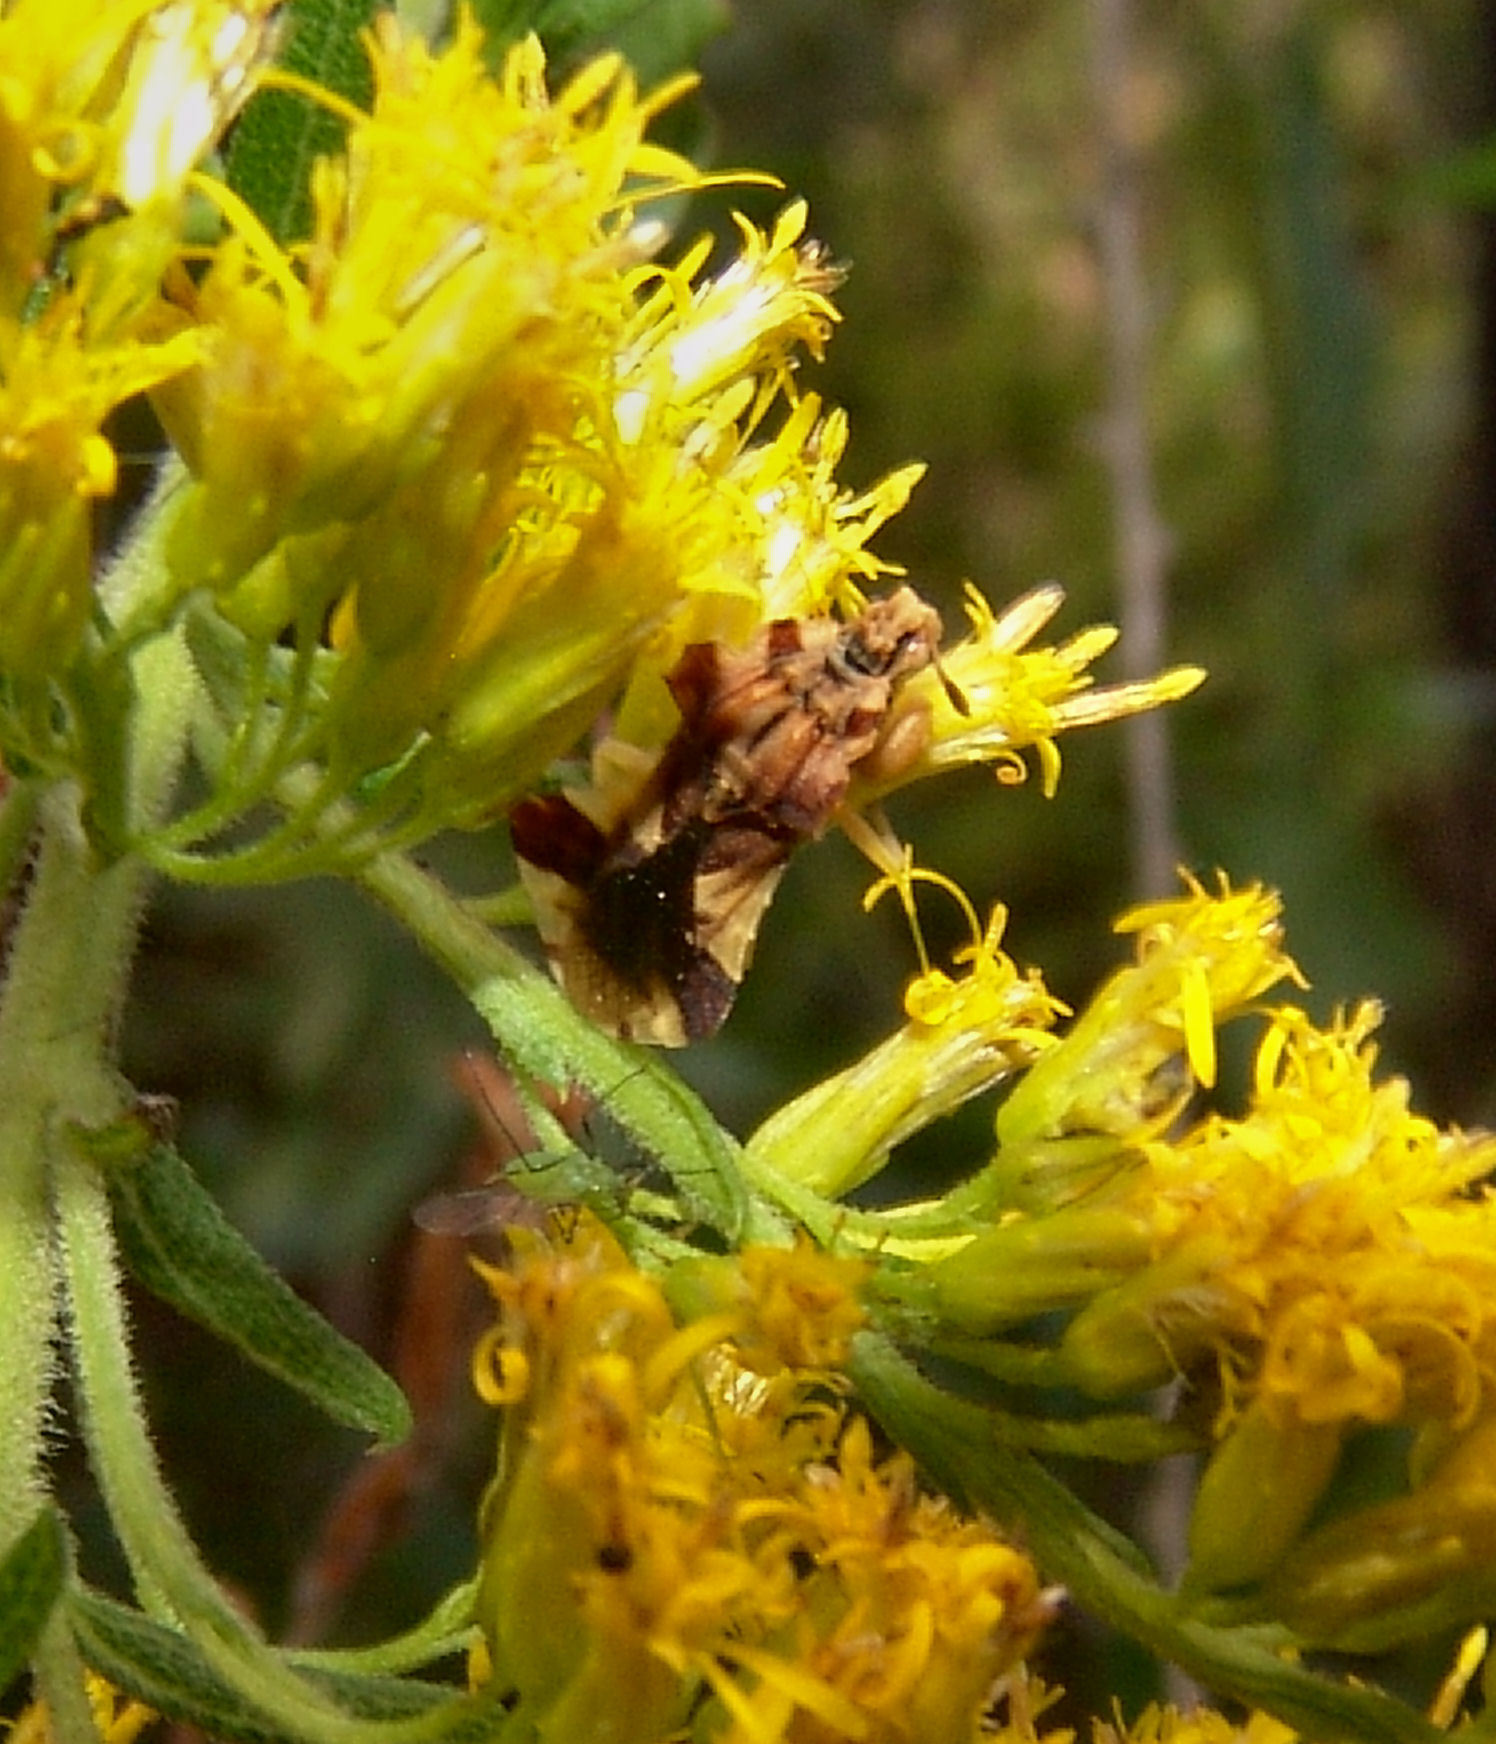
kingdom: Animalia
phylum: Arthropoda
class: Insecta
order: Hemiptera
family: Reduviidae
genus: Phymata
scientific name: Phymata fasciata
